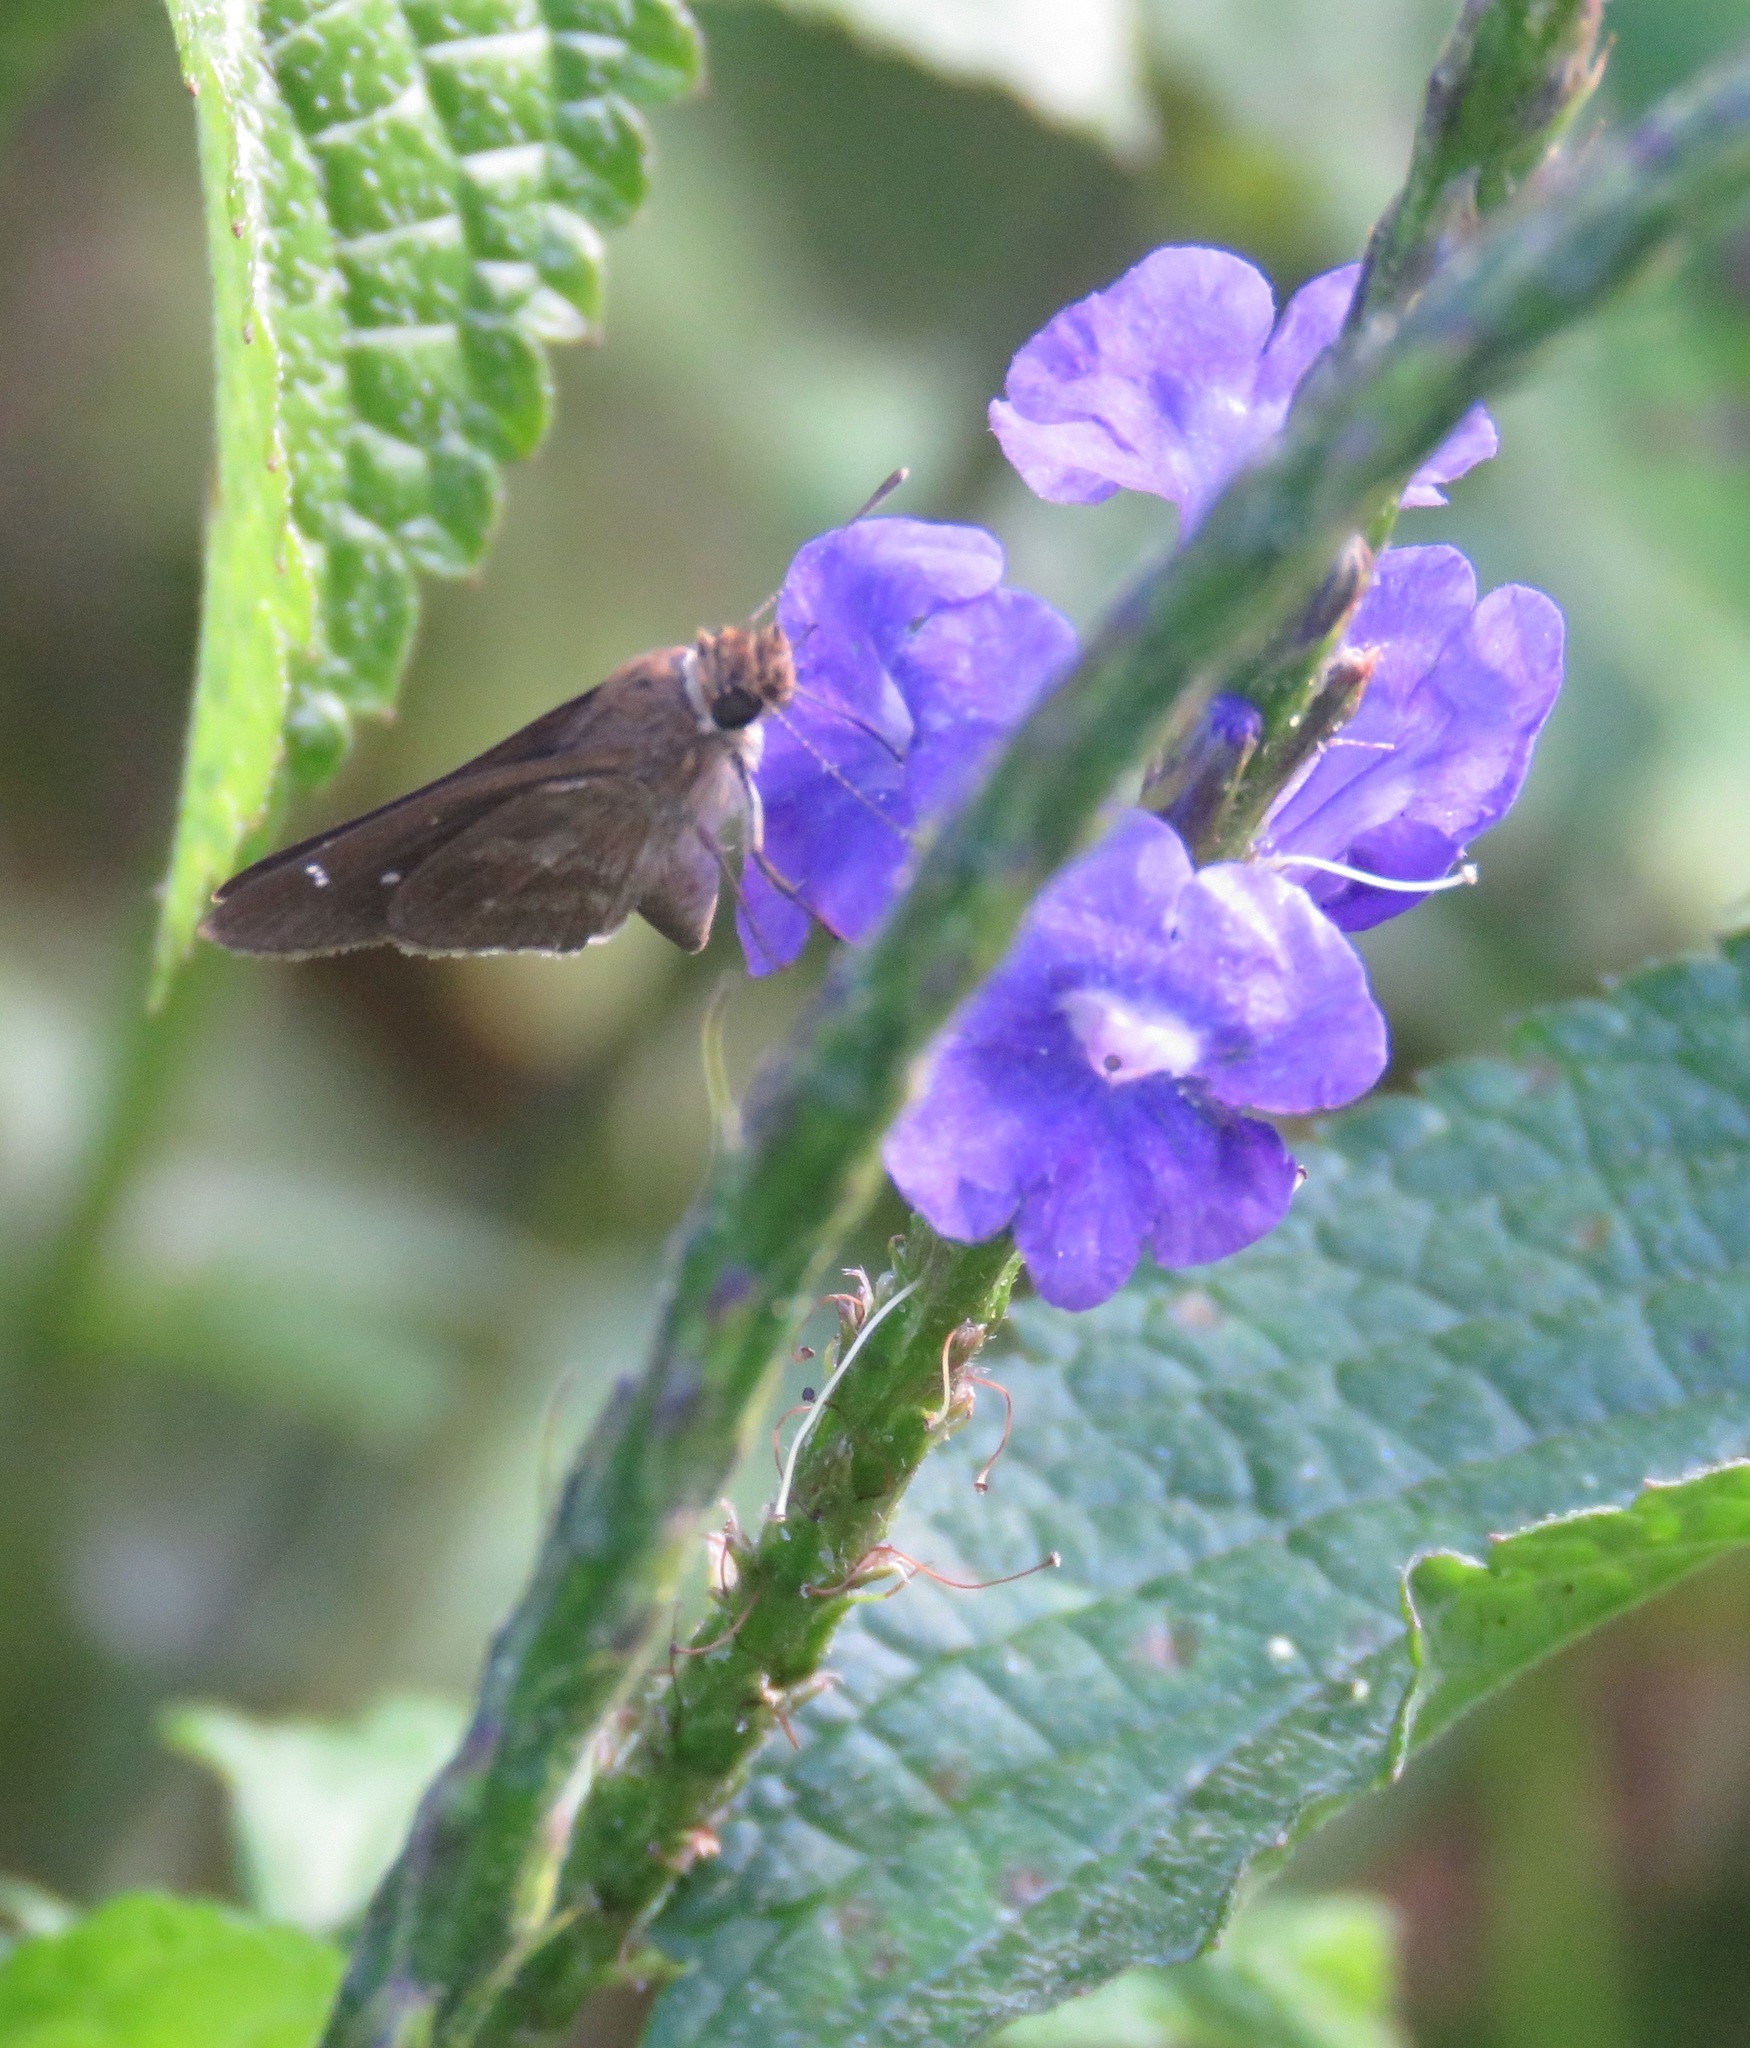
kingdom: Animalia
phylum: Arthropoda
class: Insecta
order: Lepidoptera
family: Hesperiidae
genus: Cymaenes
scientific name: Cymaenes
